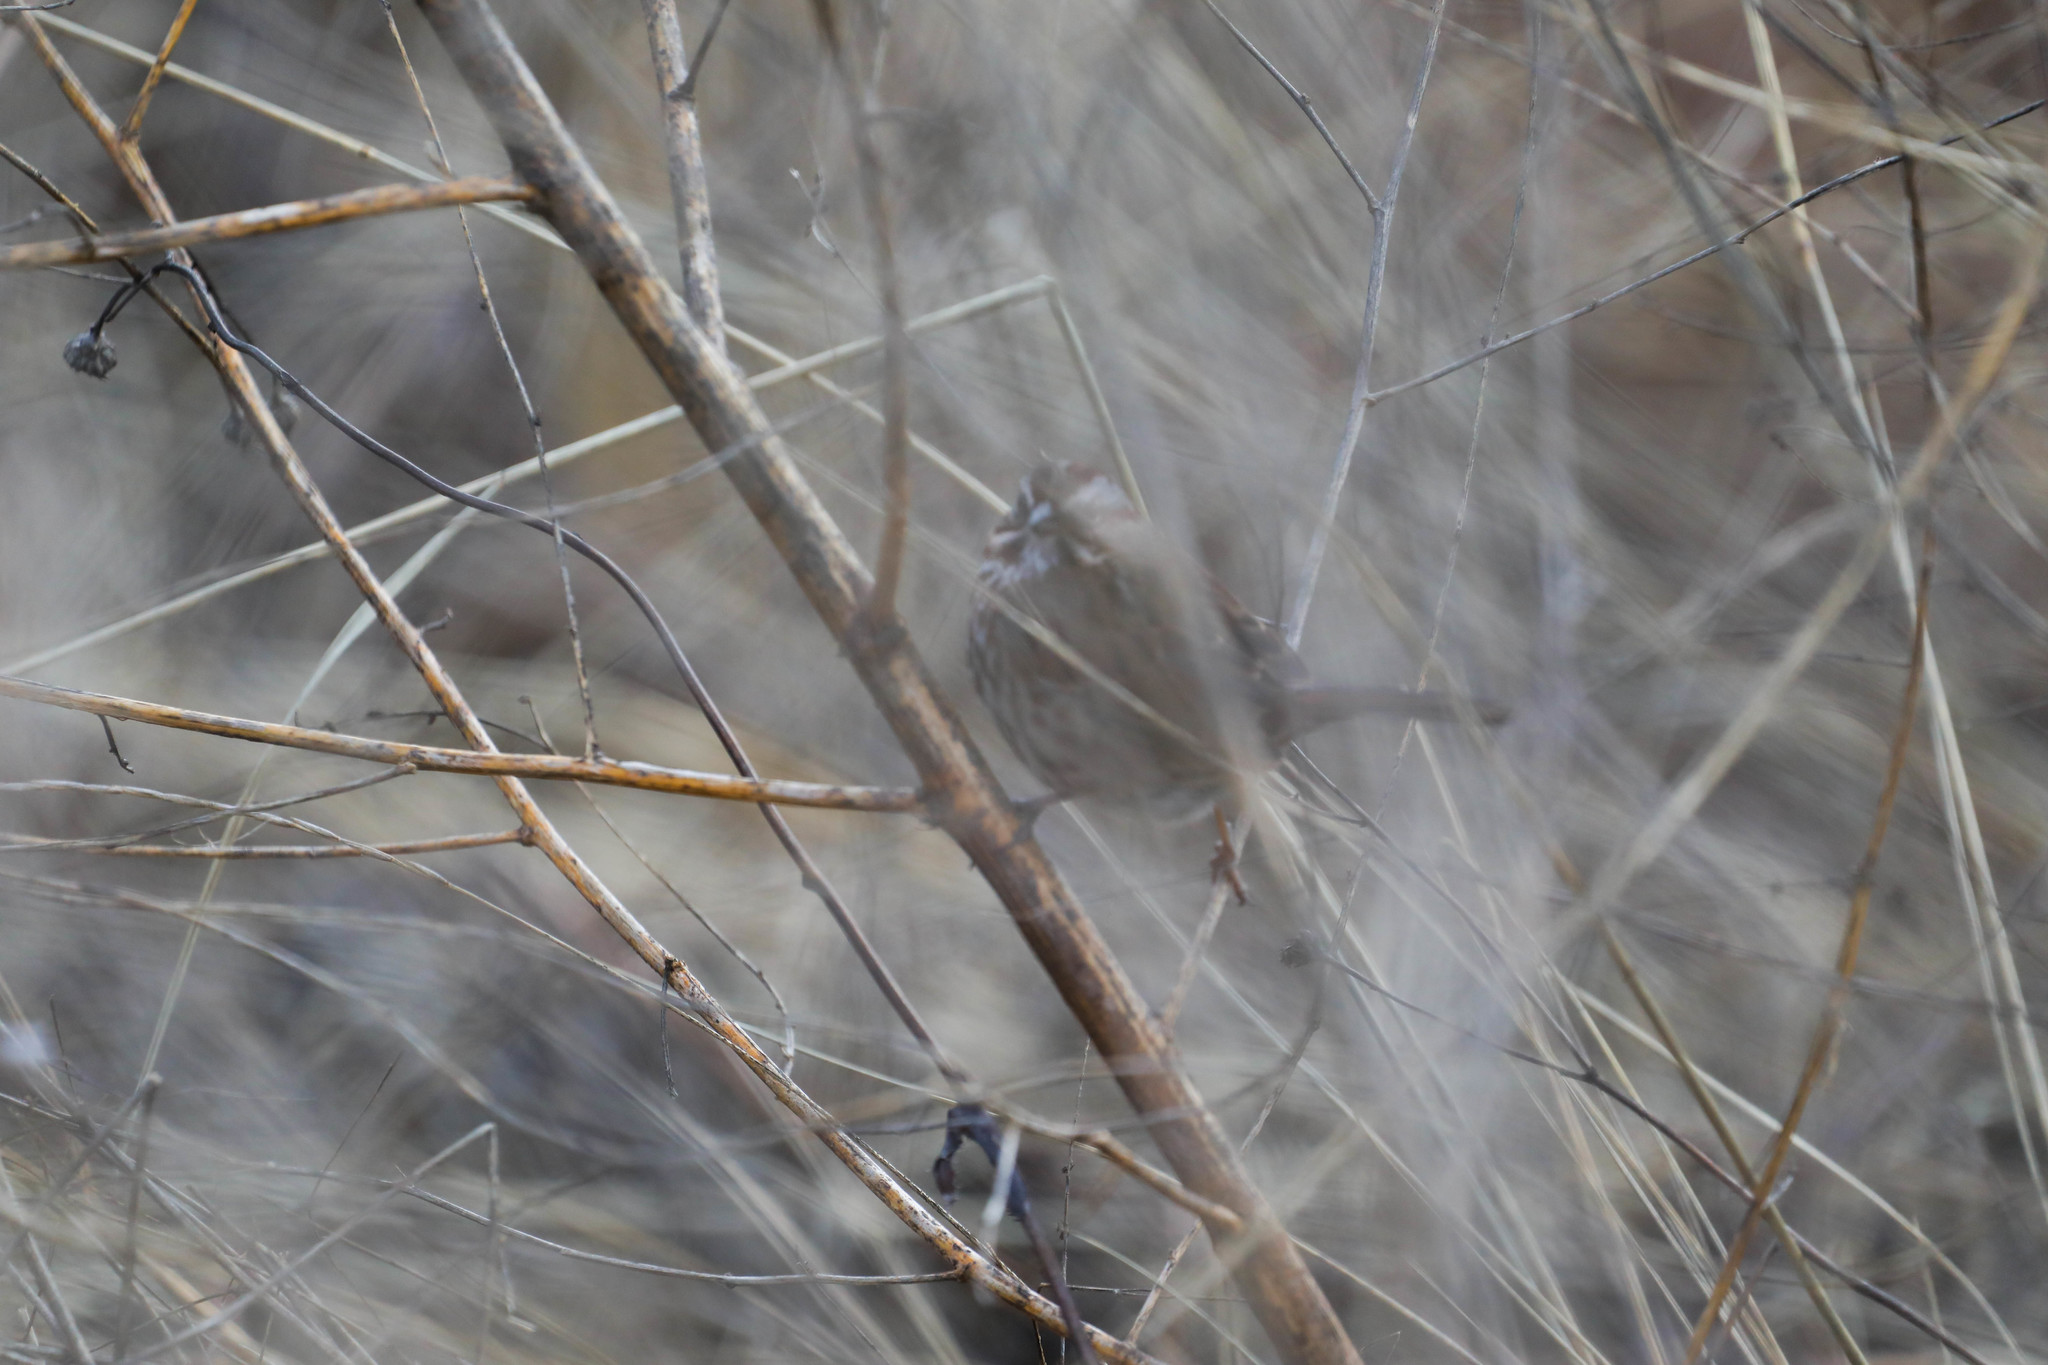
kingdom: Animalia
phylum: Chordata
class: Aves
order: Passeriformes
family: Passerellidae
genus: Melospiza
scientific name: Melospiza melodia
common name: Song sparrow
